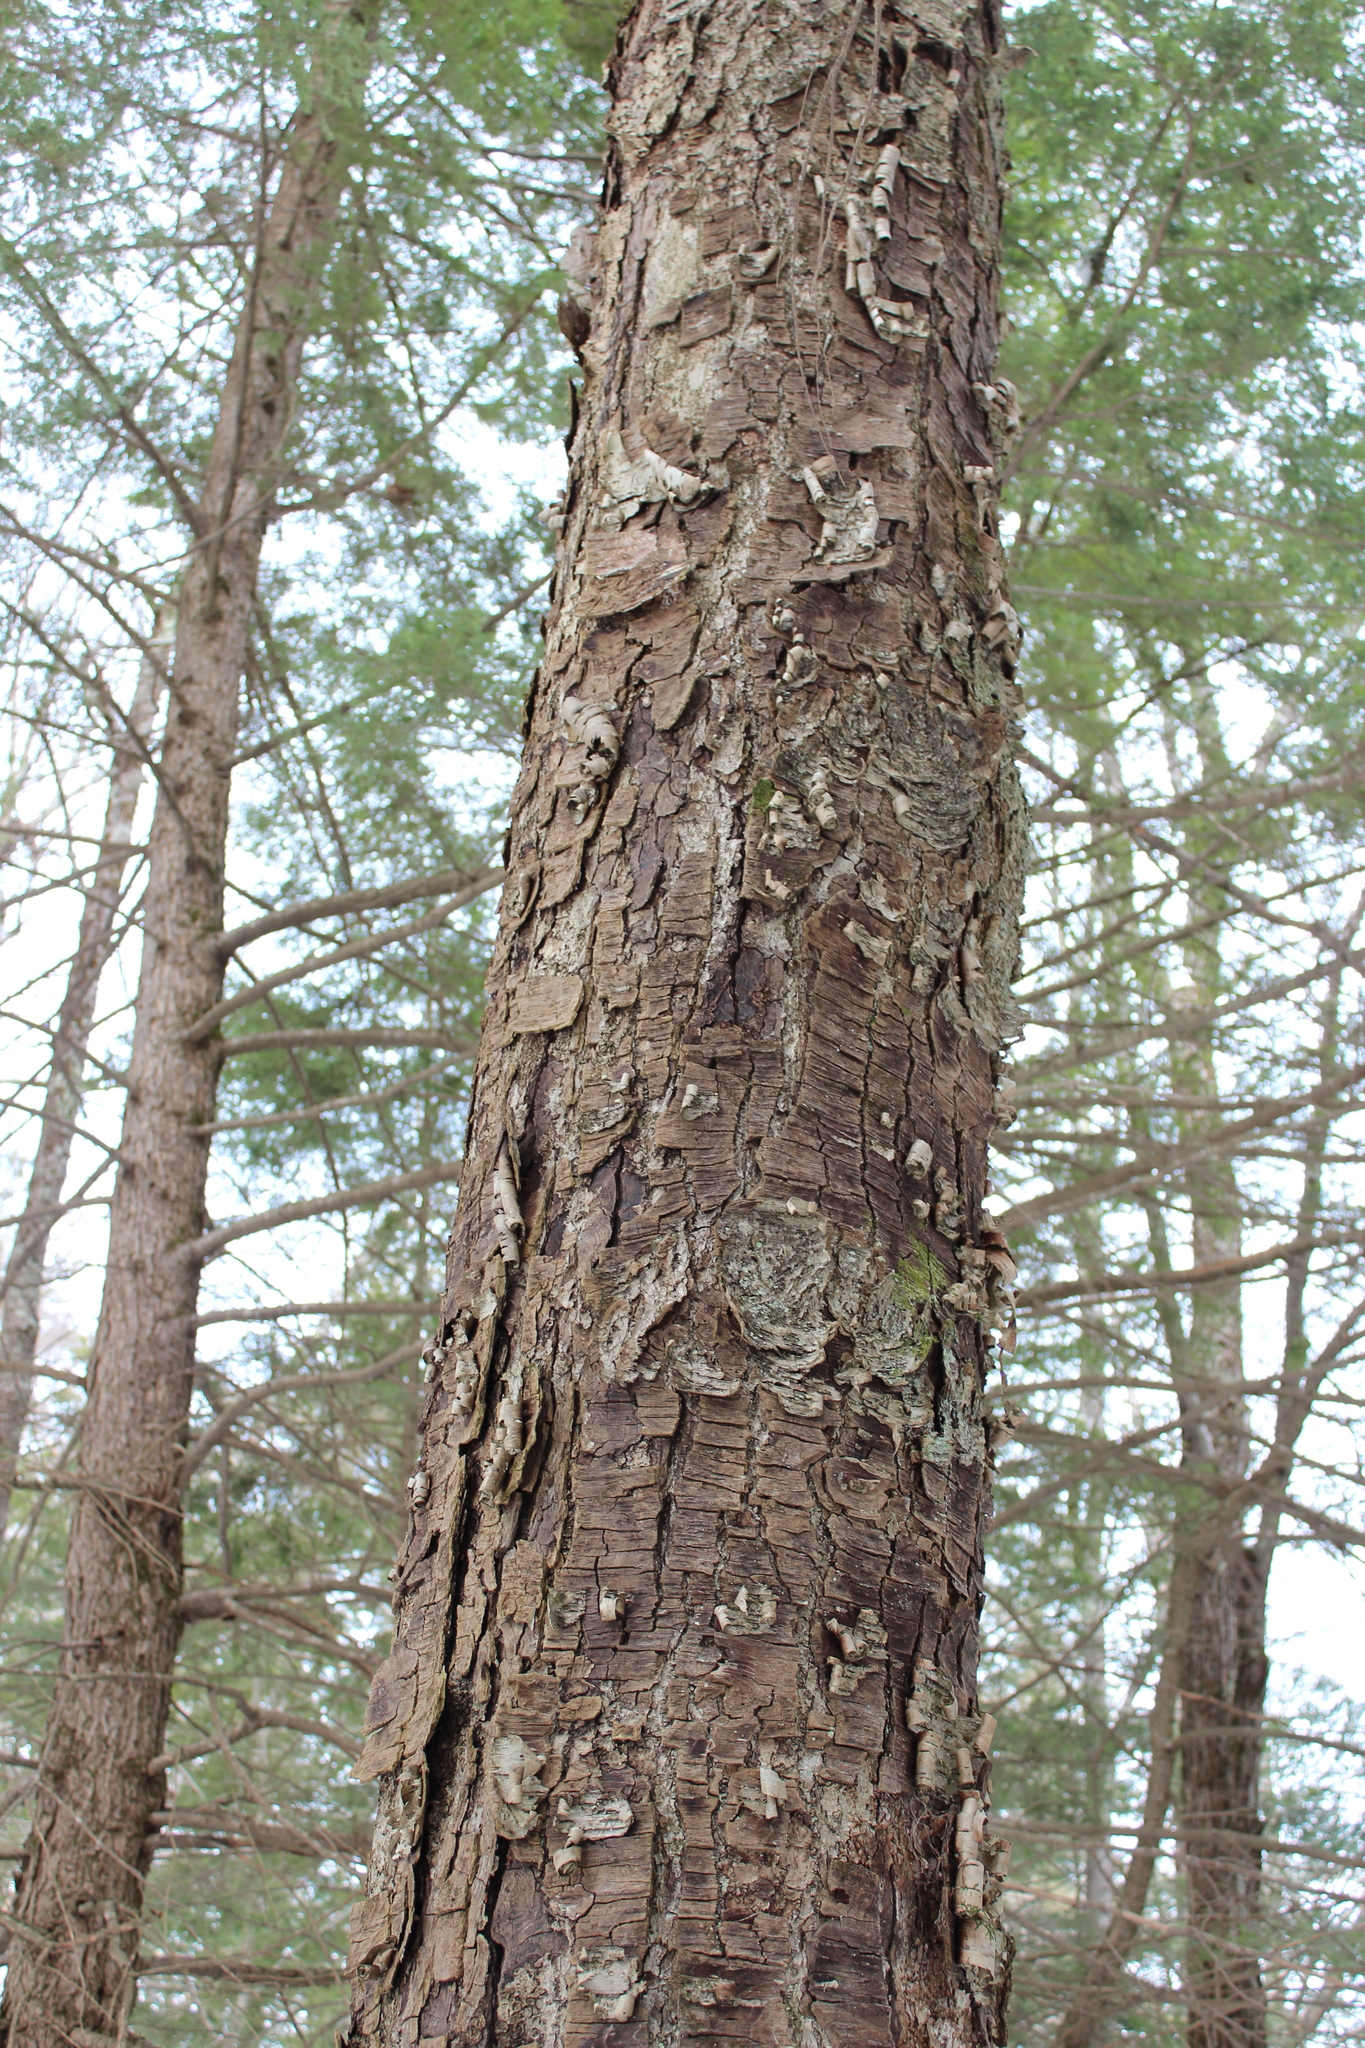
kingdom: Plantae
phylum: Tracheophyta
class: Magnoliopsida
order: Fagales
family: Betulaceae
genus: Betula
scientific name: Betula alleghaniensis
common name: Yellow birch
